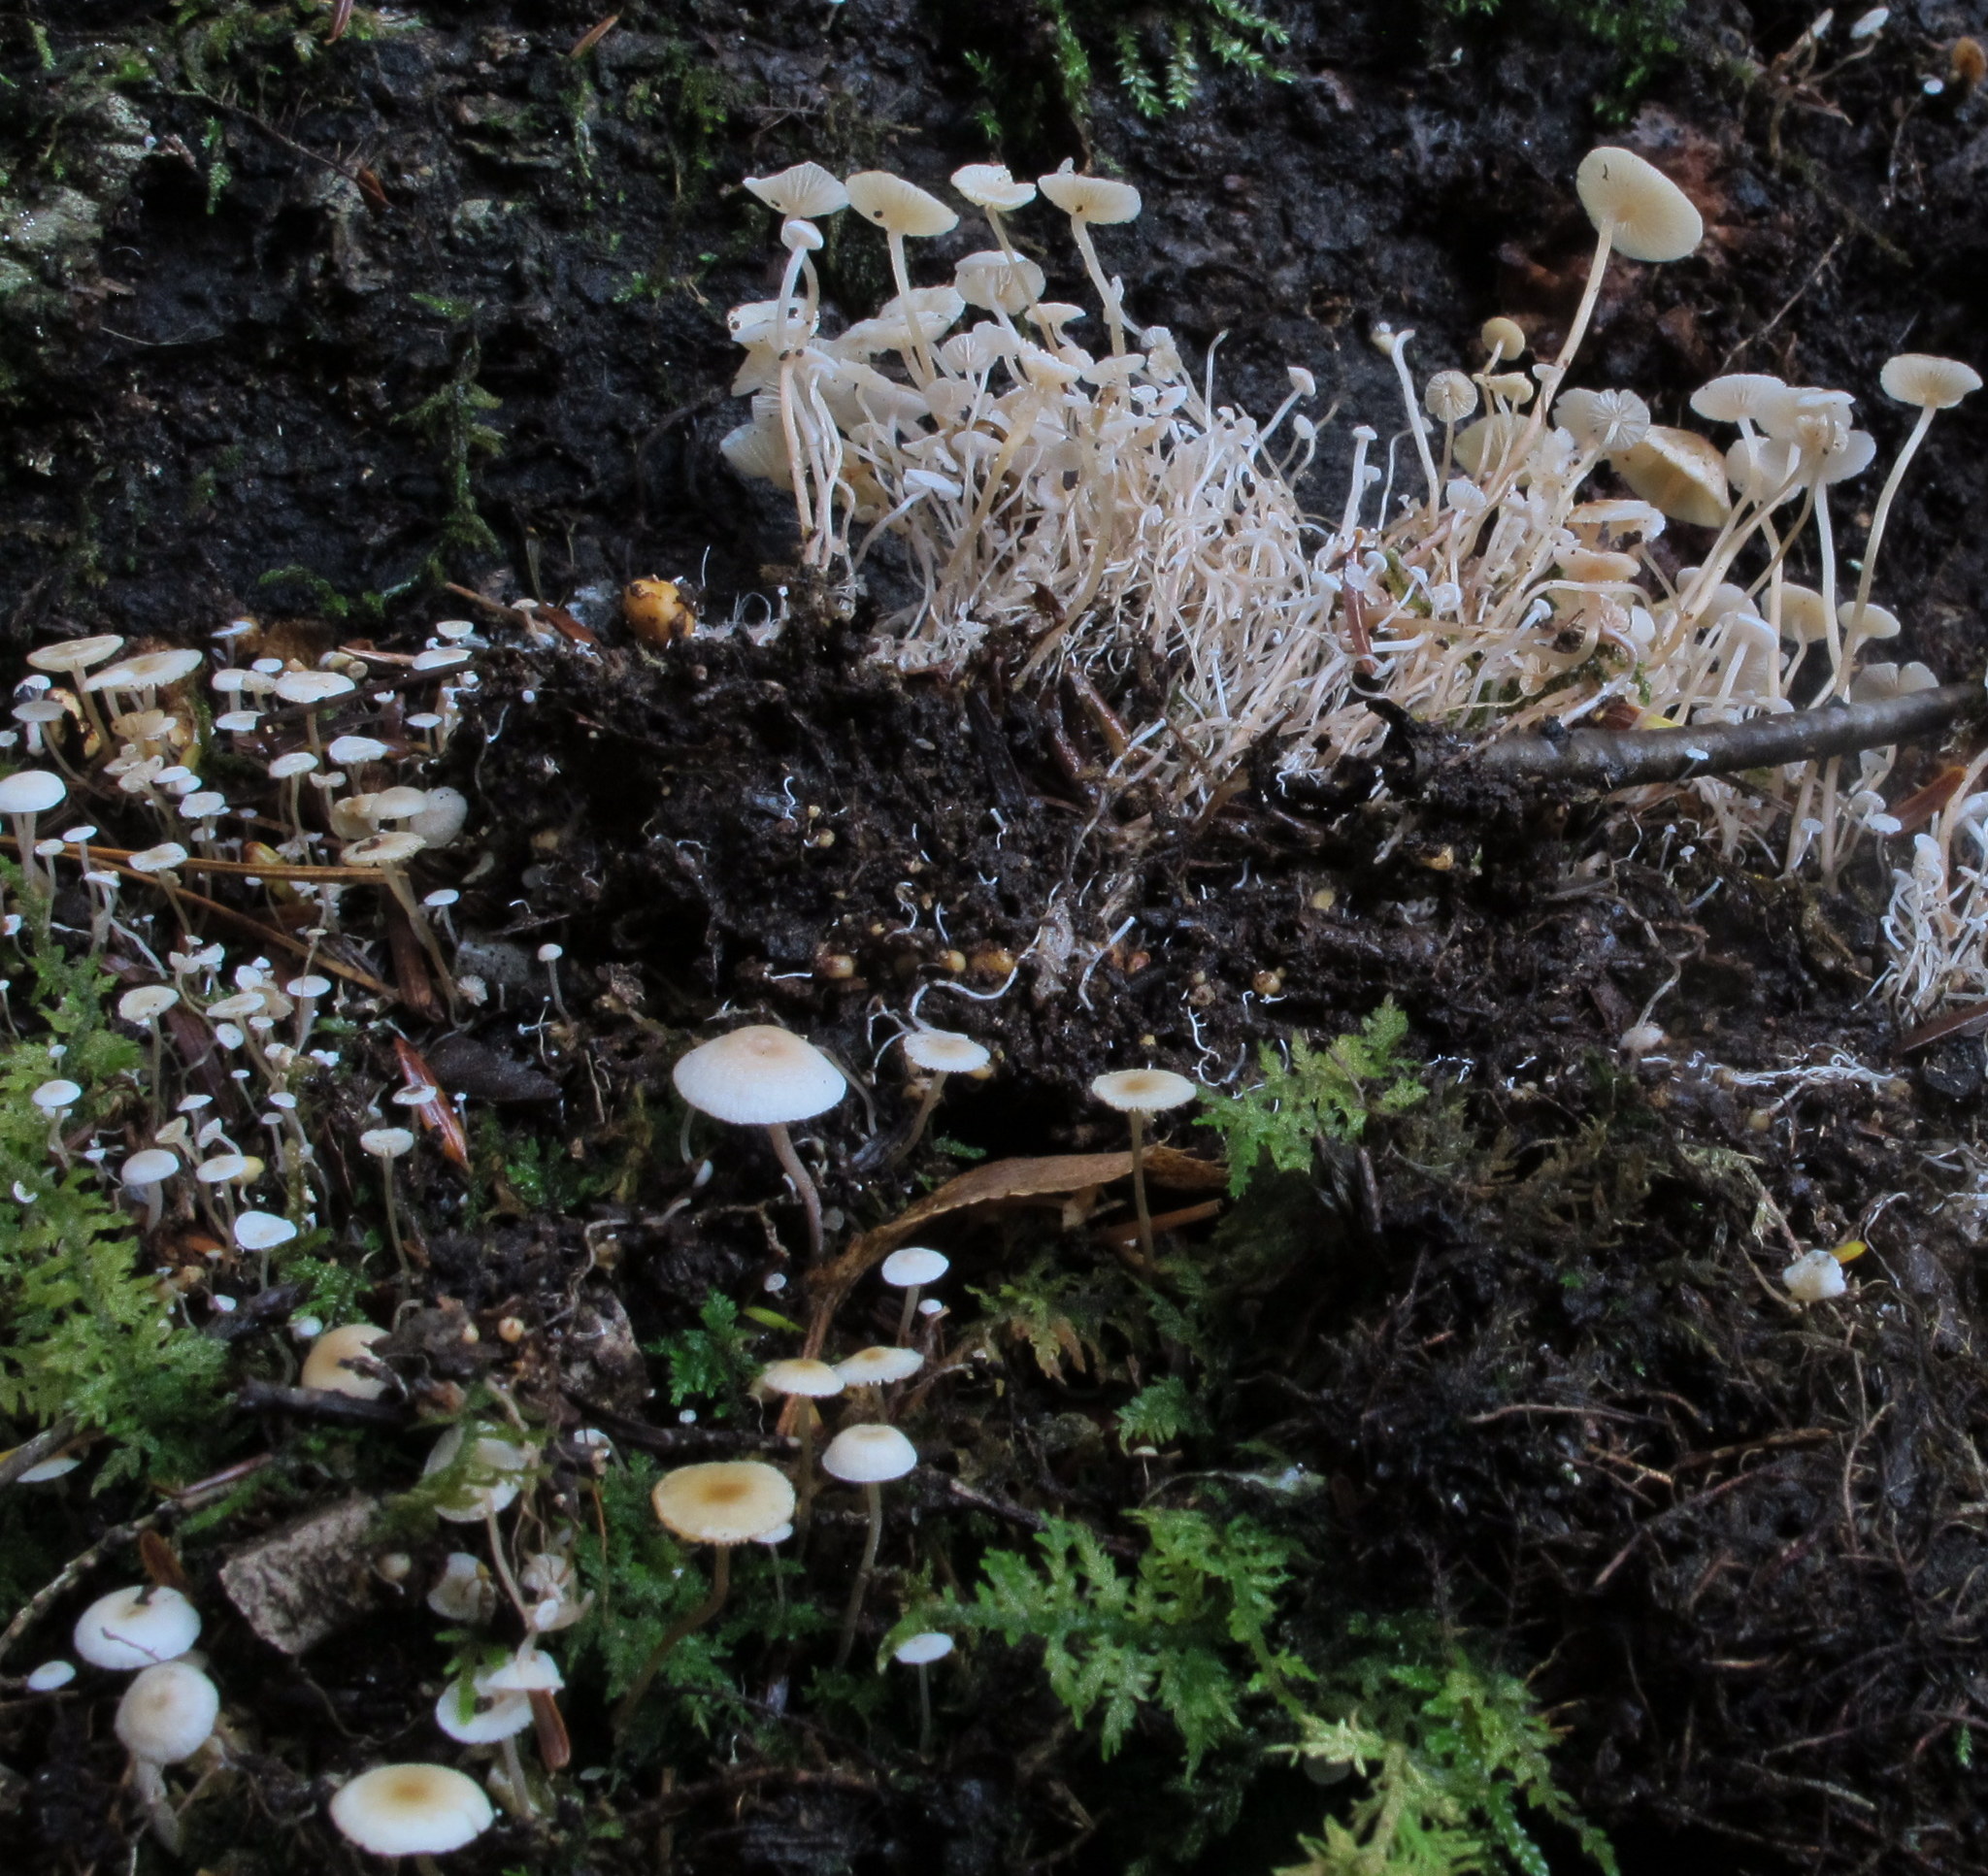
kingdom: Fungi
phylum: Basidiomycota
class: Agaricomycetes
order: Agaricales
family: Tricholomataceae
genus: Collybia
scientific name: Collybia cookei
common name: Splitpea shanklet
